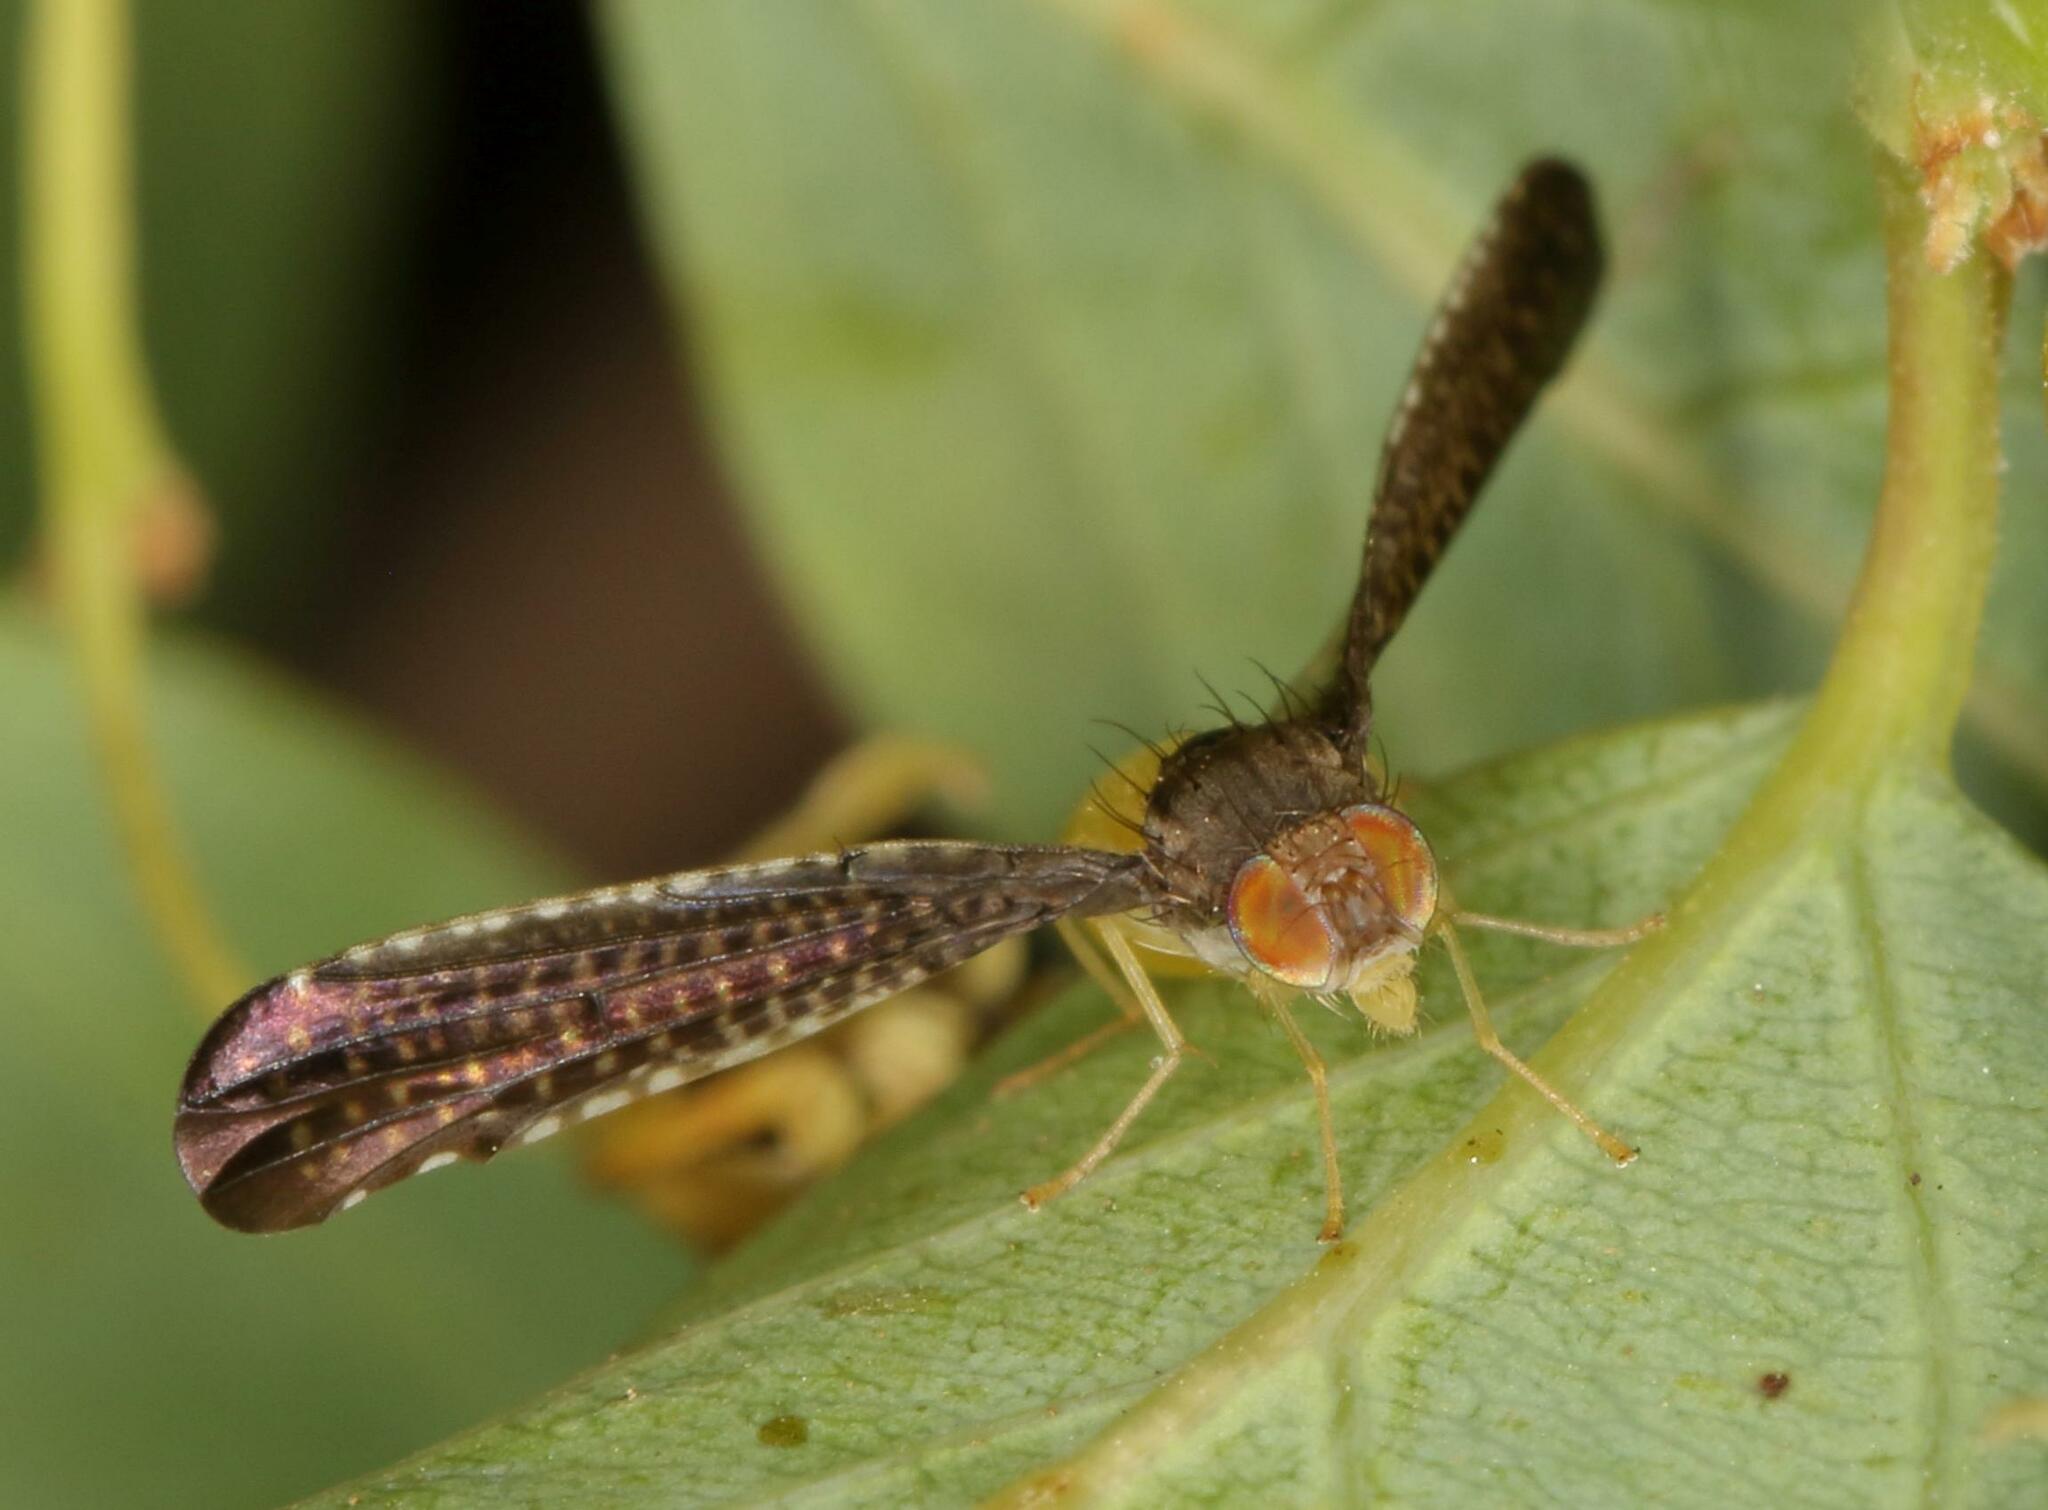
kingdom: Animalia
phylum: Arthropoda
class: Insecta
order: Diptera
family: Tephritidae
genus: Elaphromyia
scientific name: Elaphromyia adatha
